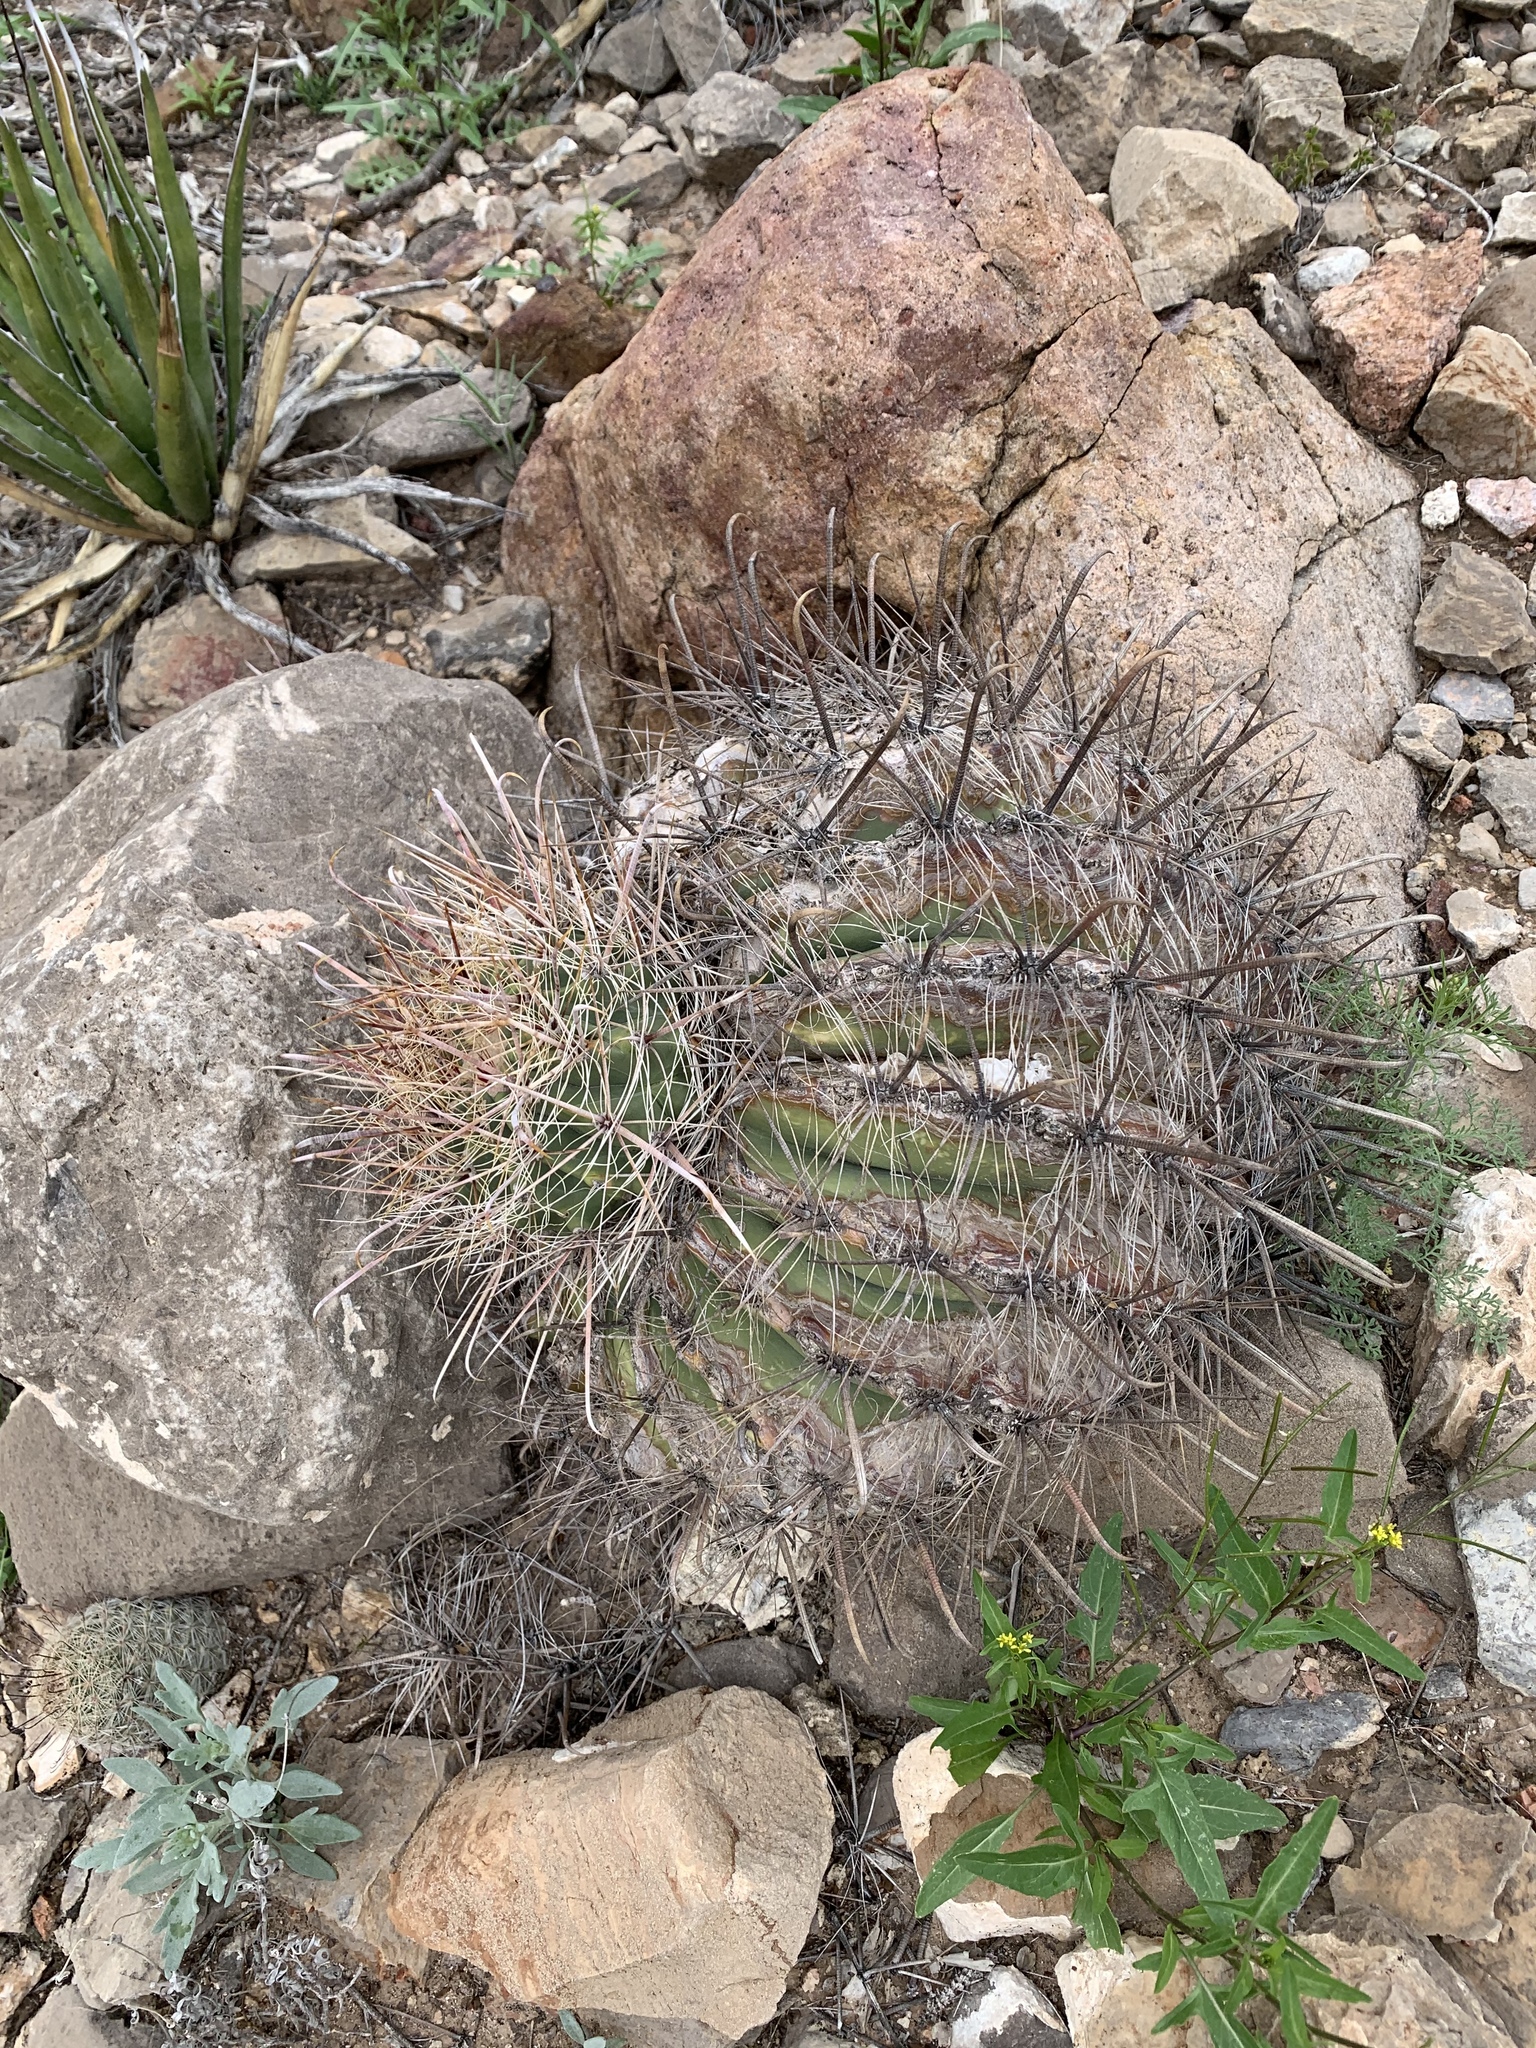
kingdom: Plantae
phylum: Tracheophyta
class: Magnoliopsida
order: Caryophyllales
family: Cactaceae
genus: Ferocactus
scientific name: Ferocactus wislizeni
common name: Candy barrel cactus
